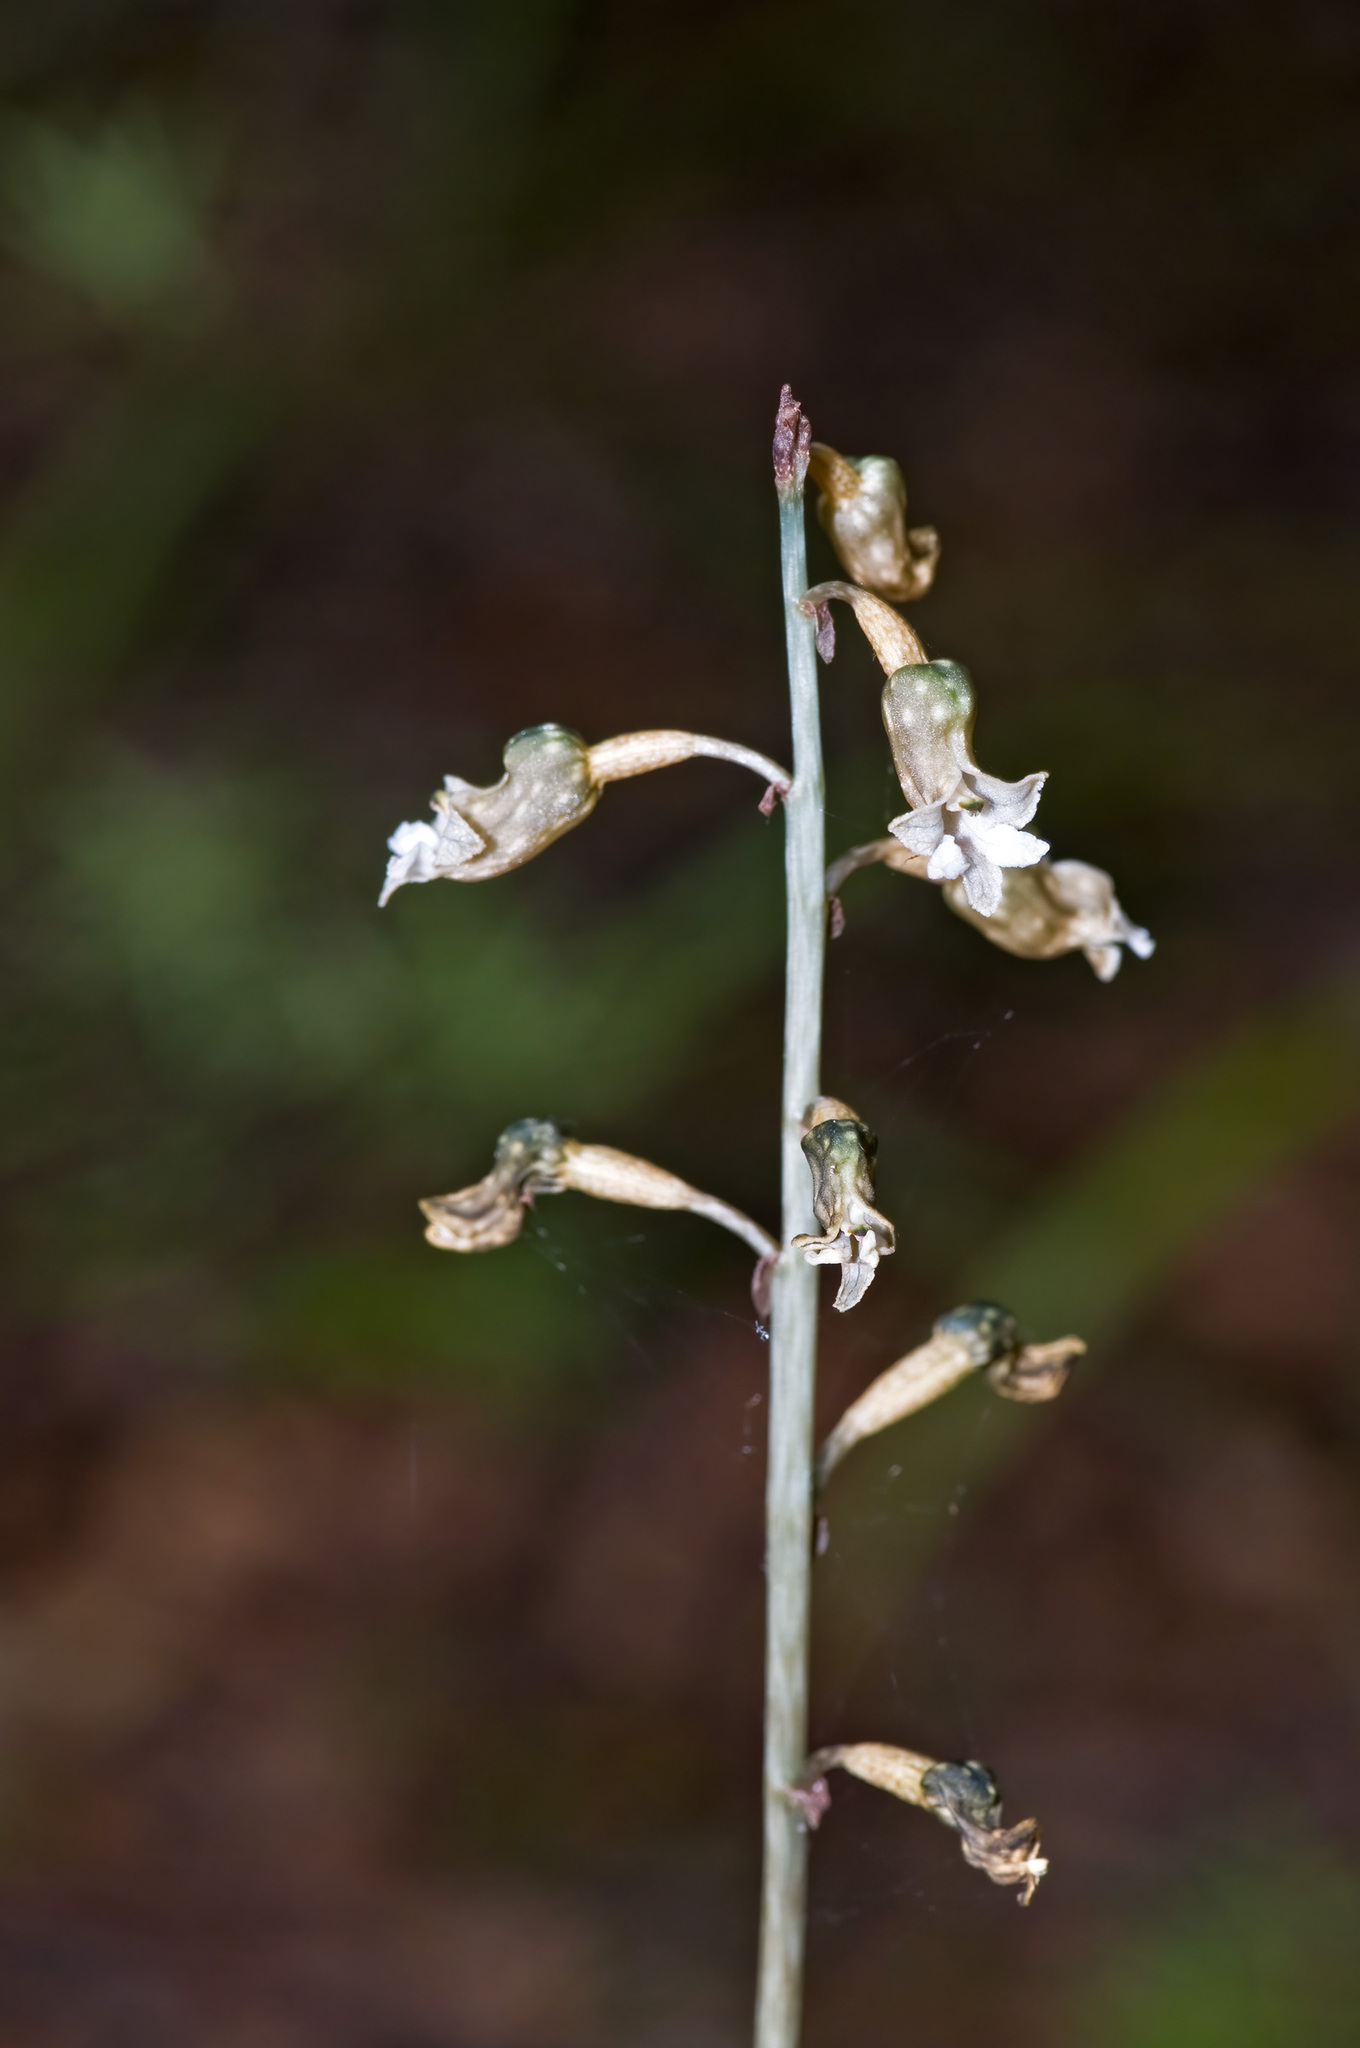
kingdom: Plantae
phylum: Tracheophyta
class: Liliopsida
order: Asparagales
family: Orchidaceae
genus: Gastrodia
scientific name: Gastrodia cunninghamii
